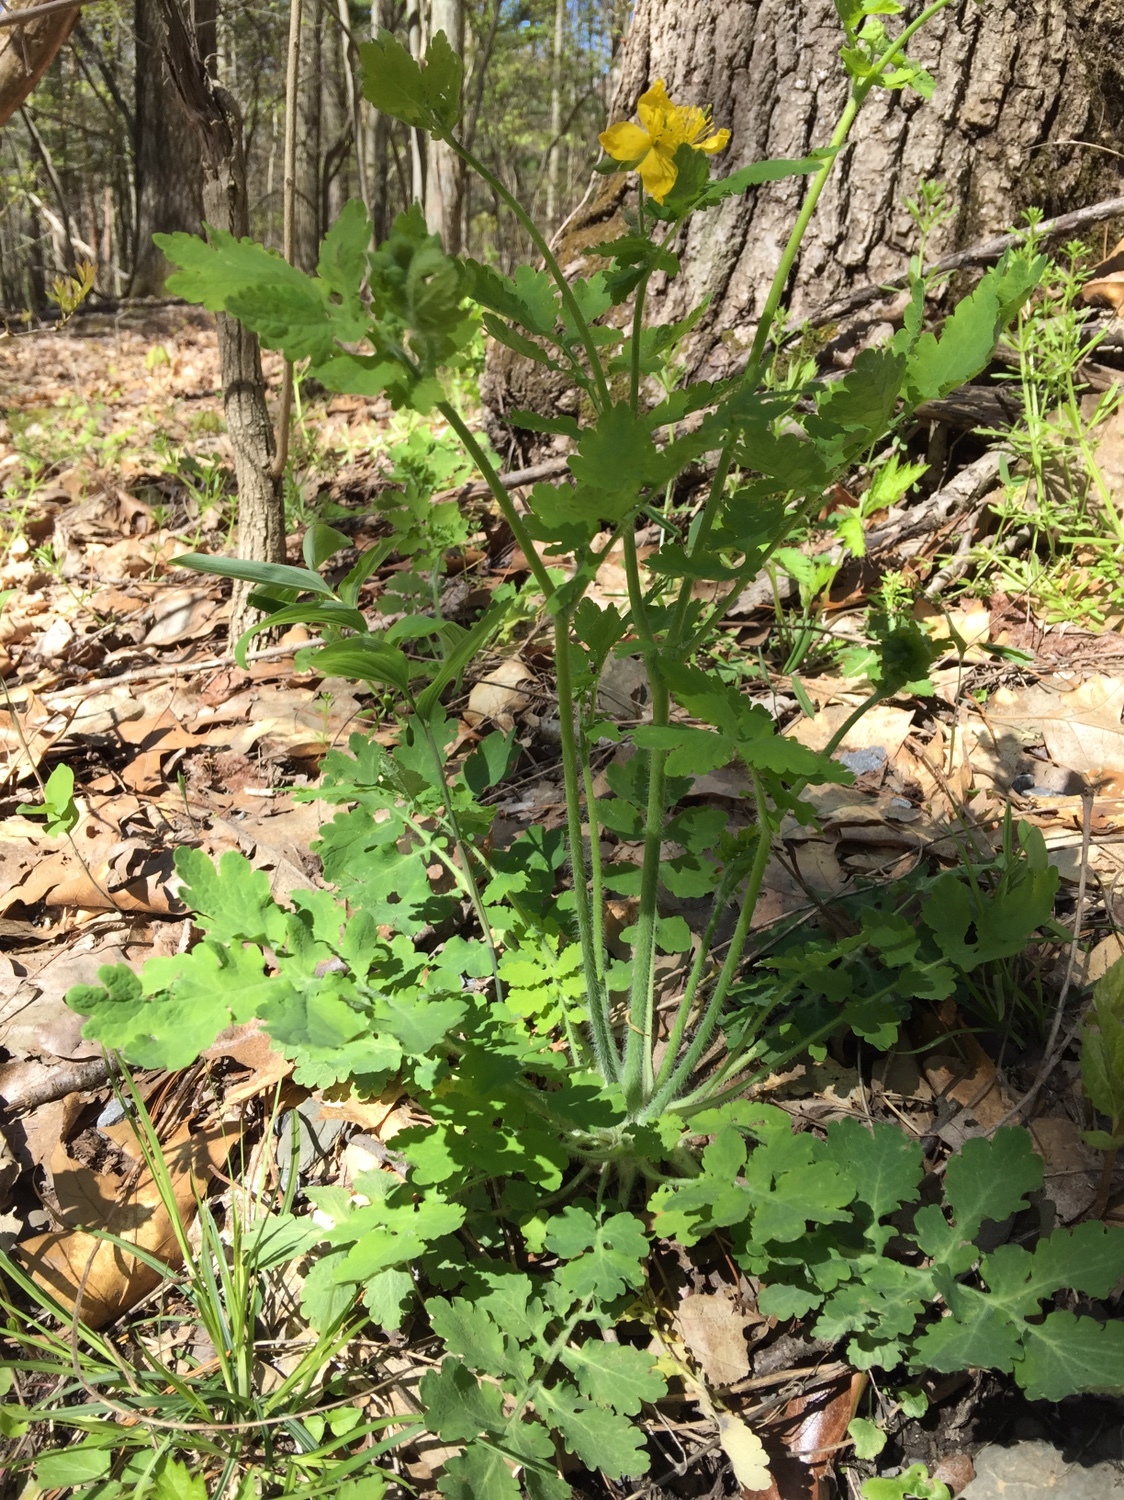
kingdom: Plantae
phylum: Tracheophyta
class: Magnoliopsida
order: Ranunculales
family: Papaveraceae
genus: Chelidonium
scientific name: Chelidonium majus
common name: Greater celandine
